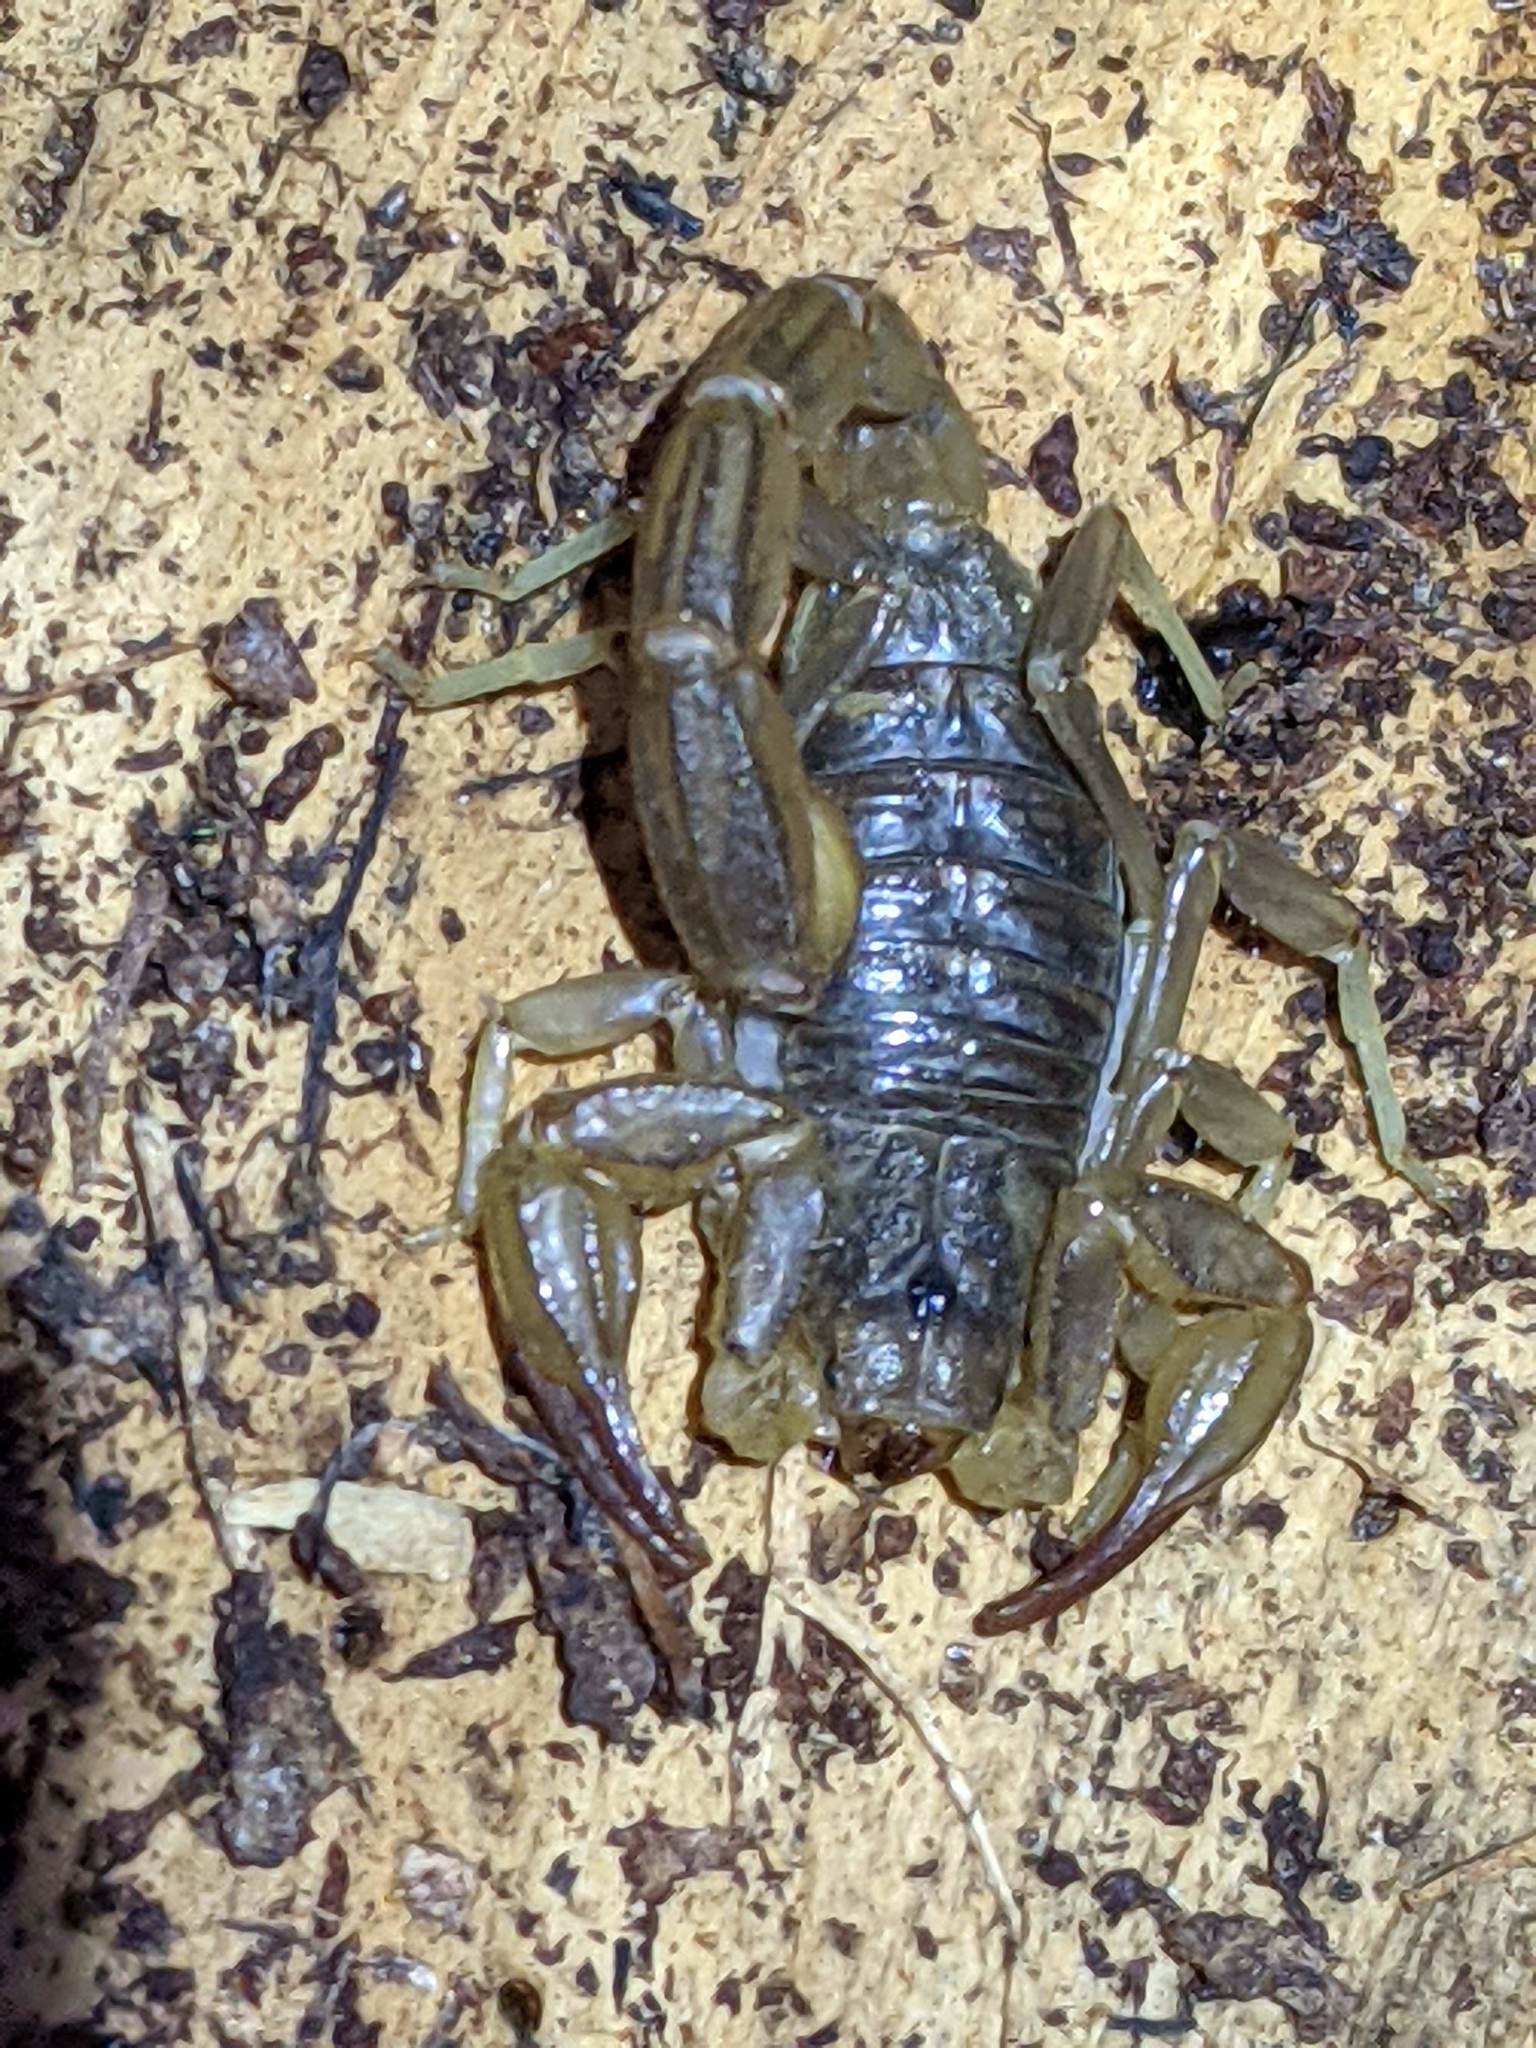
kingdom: Animalia
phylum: Arthropoda
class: Arachnida
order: Scorpiones
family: Vaejovidae
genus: Paruroctonus
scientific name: Paruroctonus silvestrii
